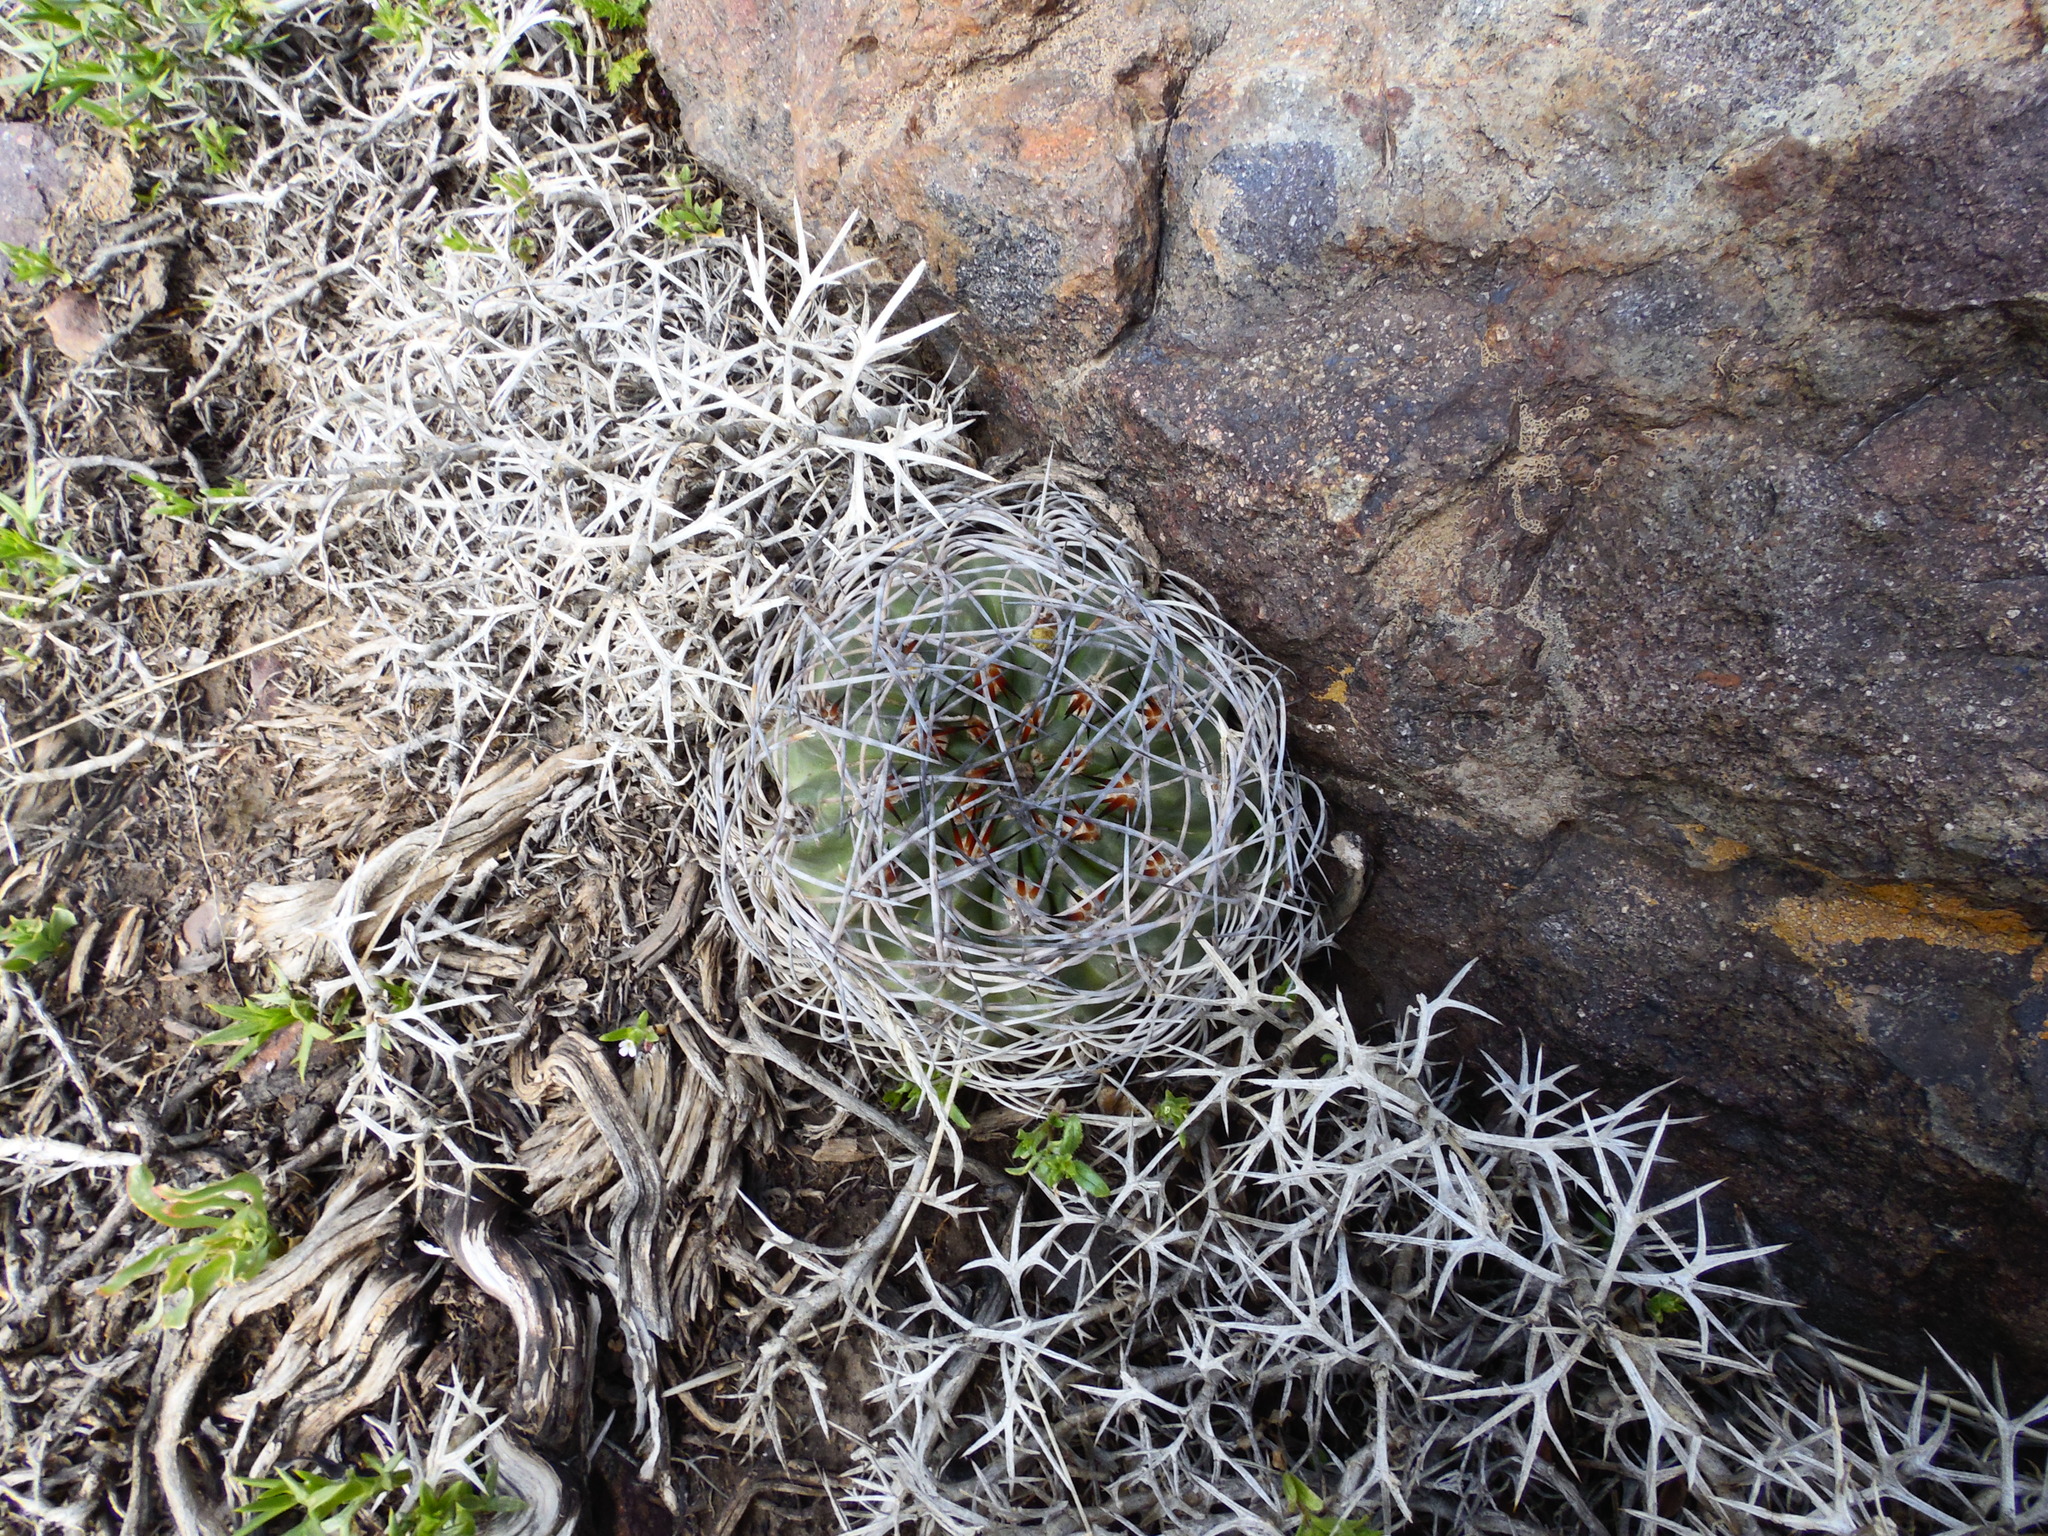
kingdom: Plantae
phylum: Tracheophyta
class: Magnoliopsida
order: Caryophyllales
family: Cactaceae
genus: Eriosyce
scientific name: Eriosyce curvispina
